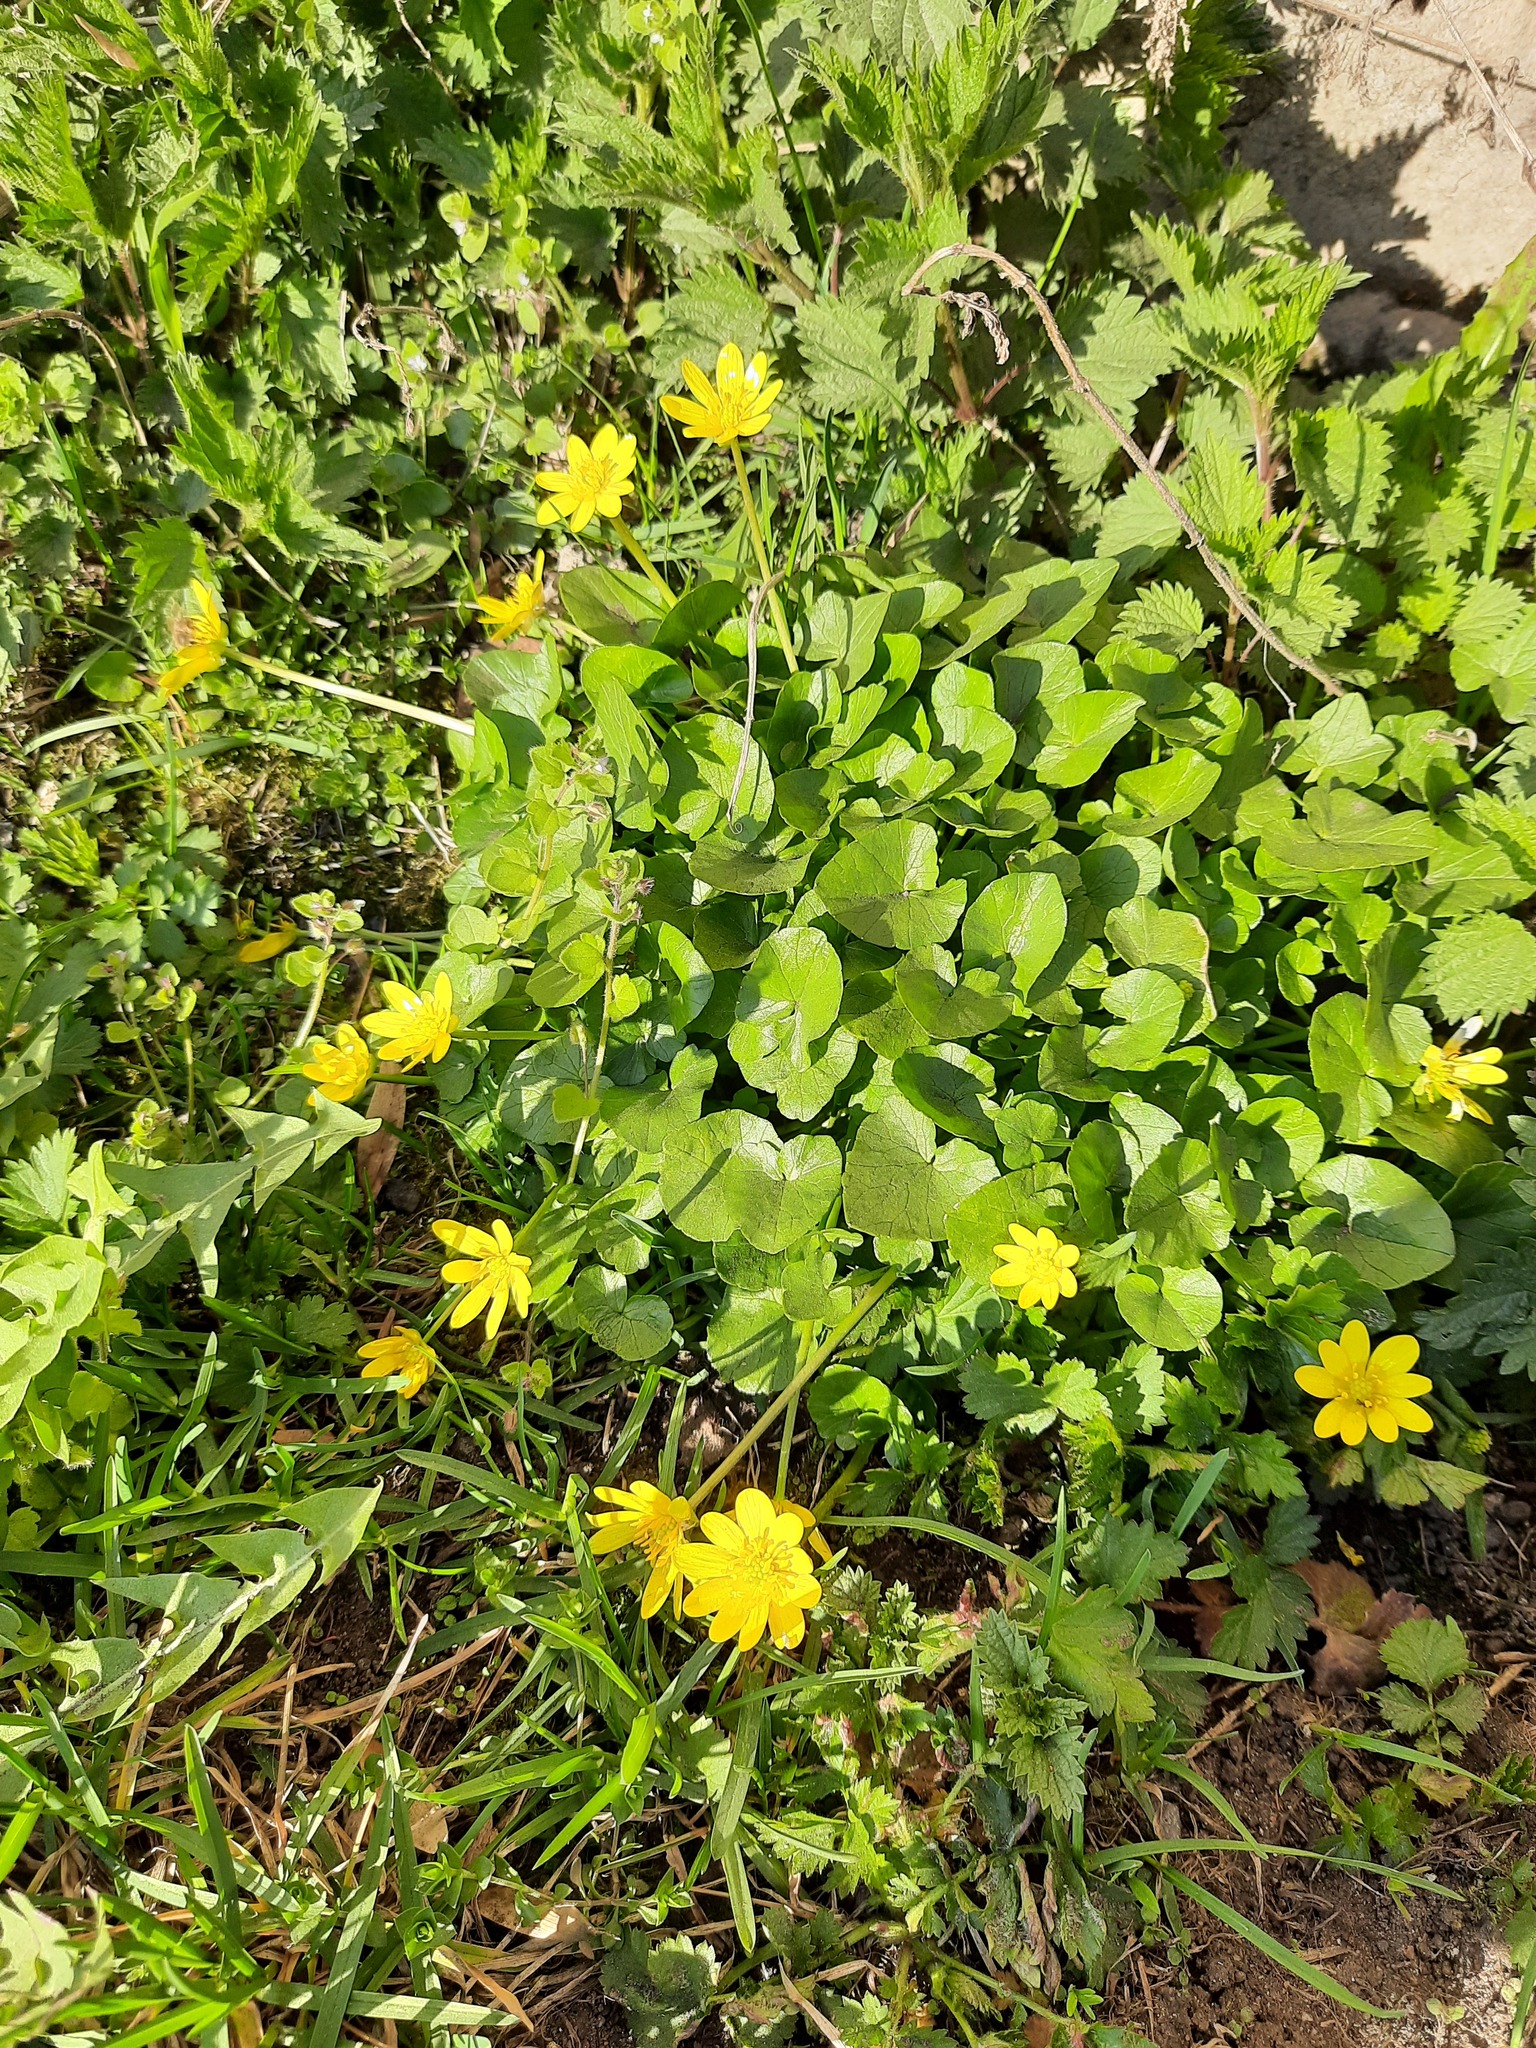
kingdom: Plantae
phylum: Tracheophyta
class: Magnoliopsida
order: Ranunculales
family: Ranunculaceae
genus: Ficaria
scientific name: Ficaria verna
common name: Lesser celandine
